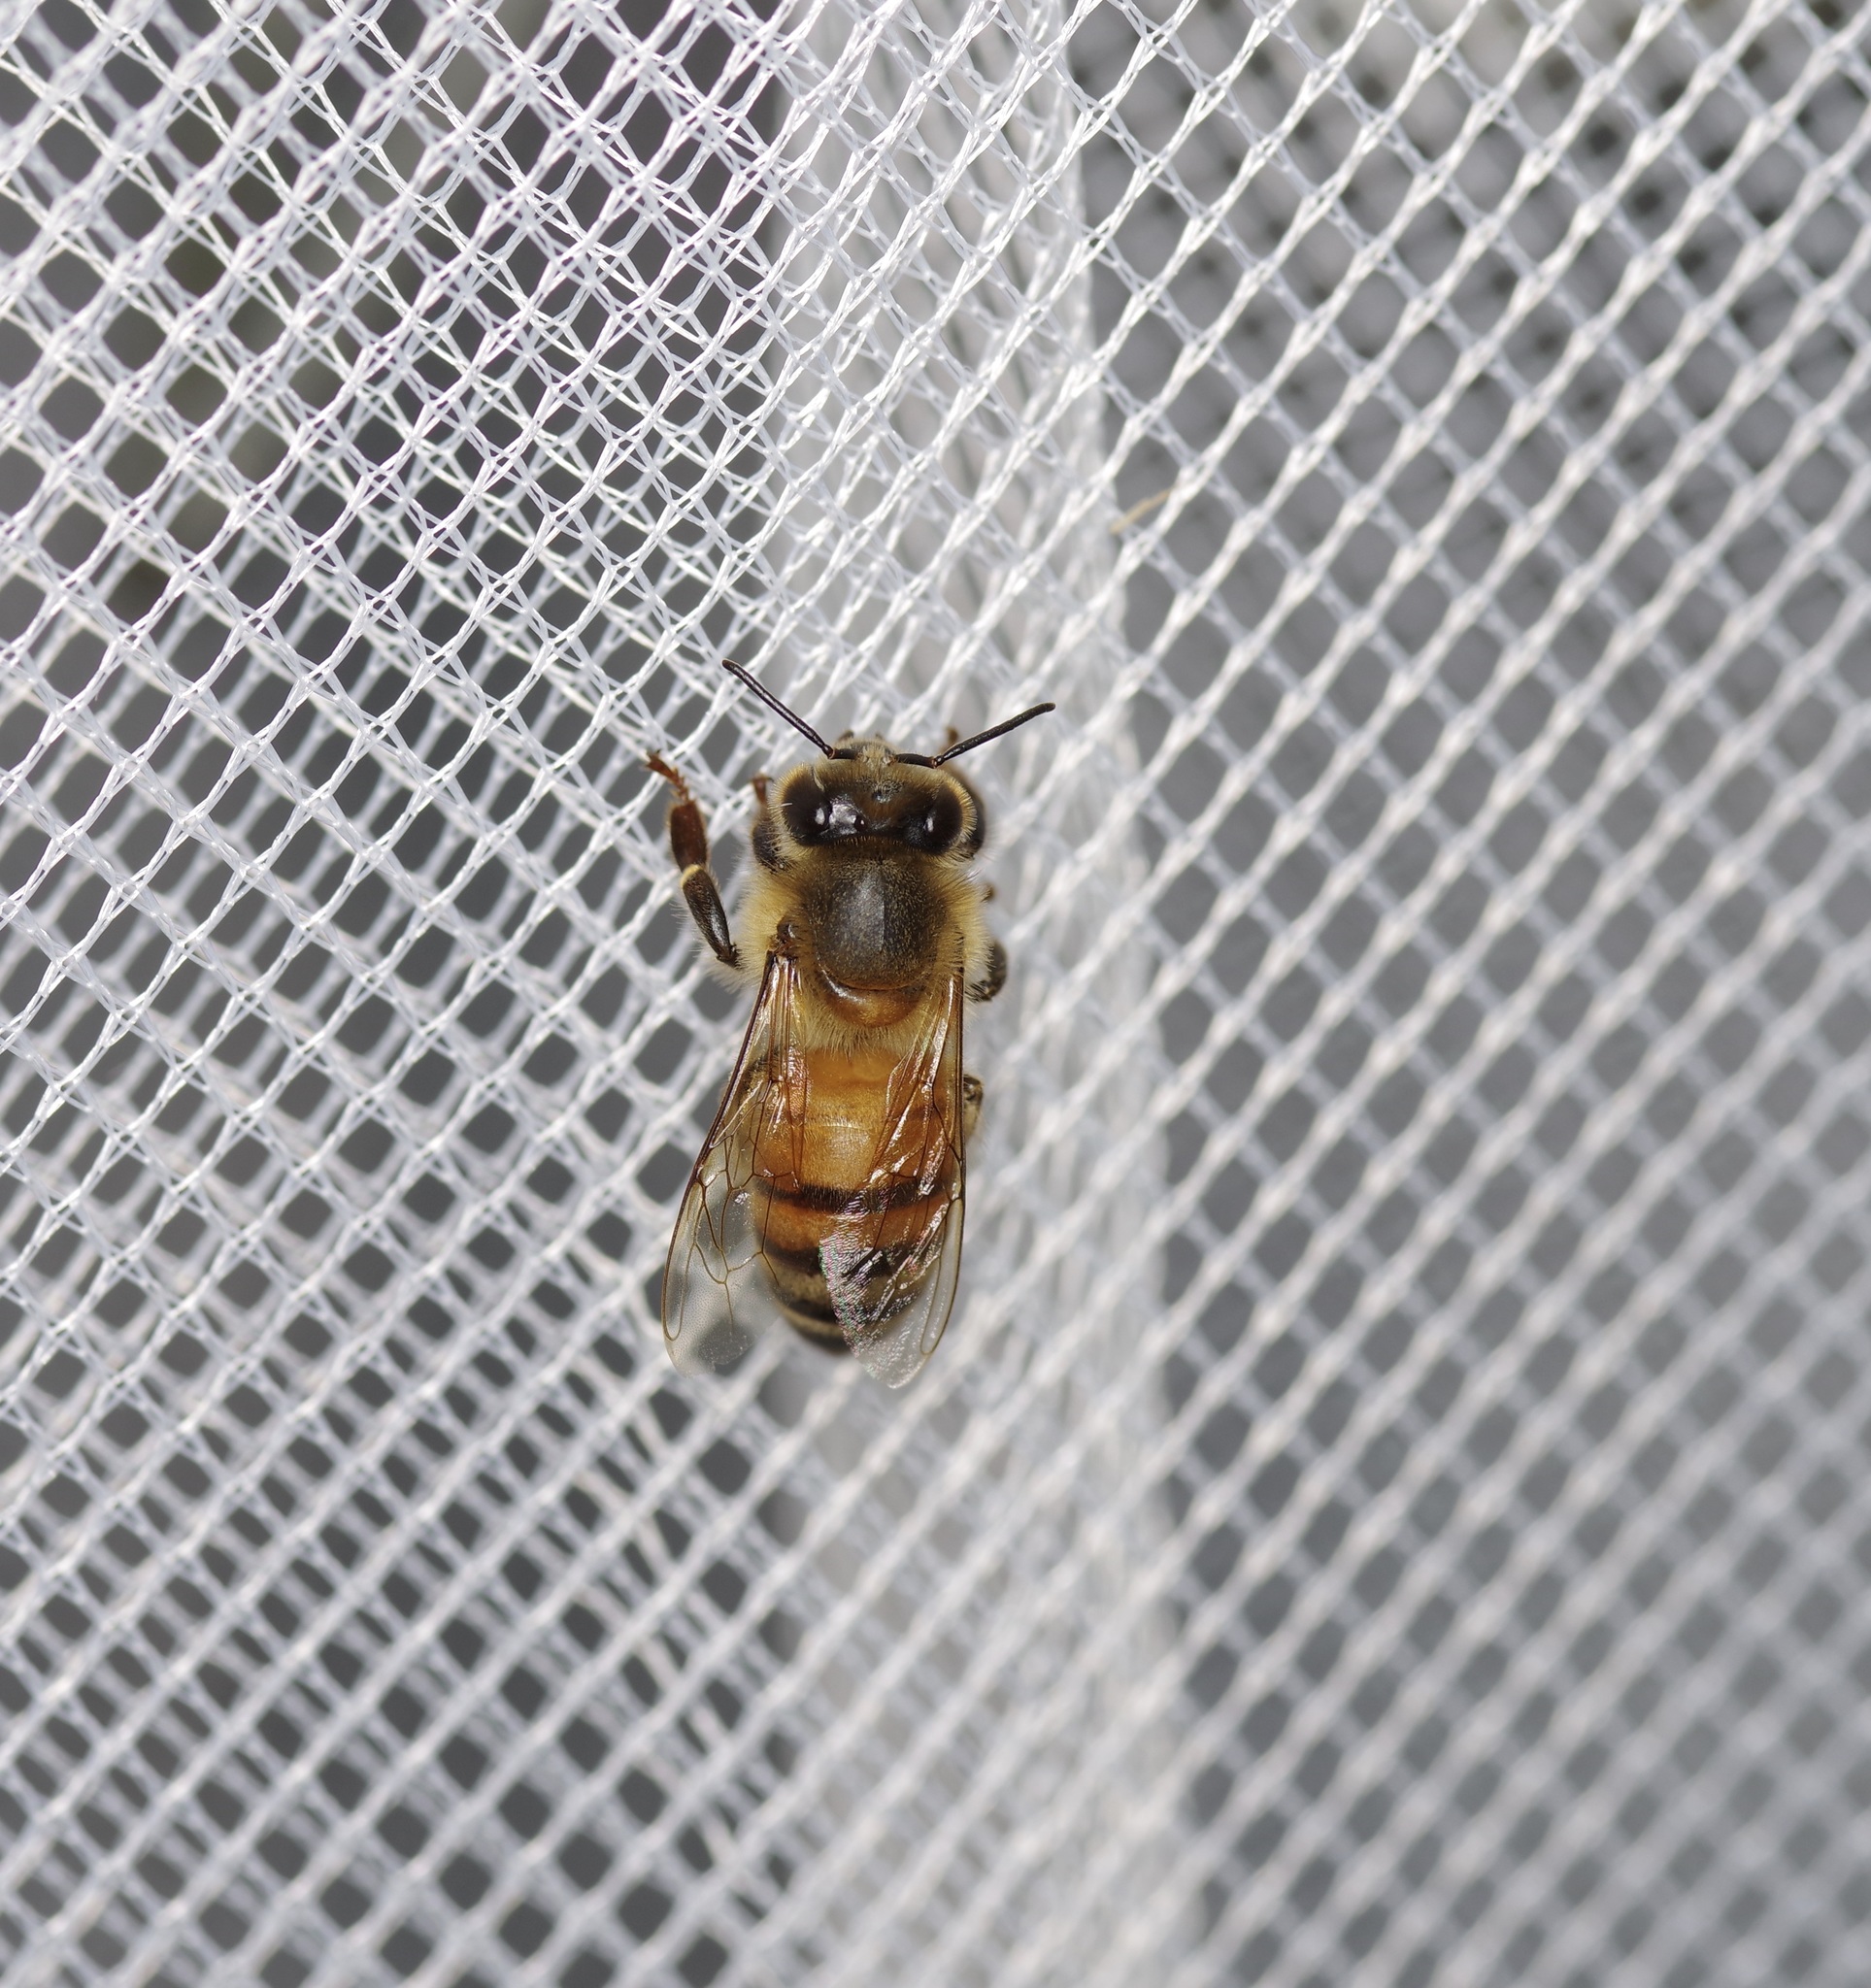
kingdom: Animalia
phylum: Arthropoda
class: Insecta
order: Hymenoptera
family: Apidae
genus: Apis
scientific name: Apis mellifera
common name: Honey bee
